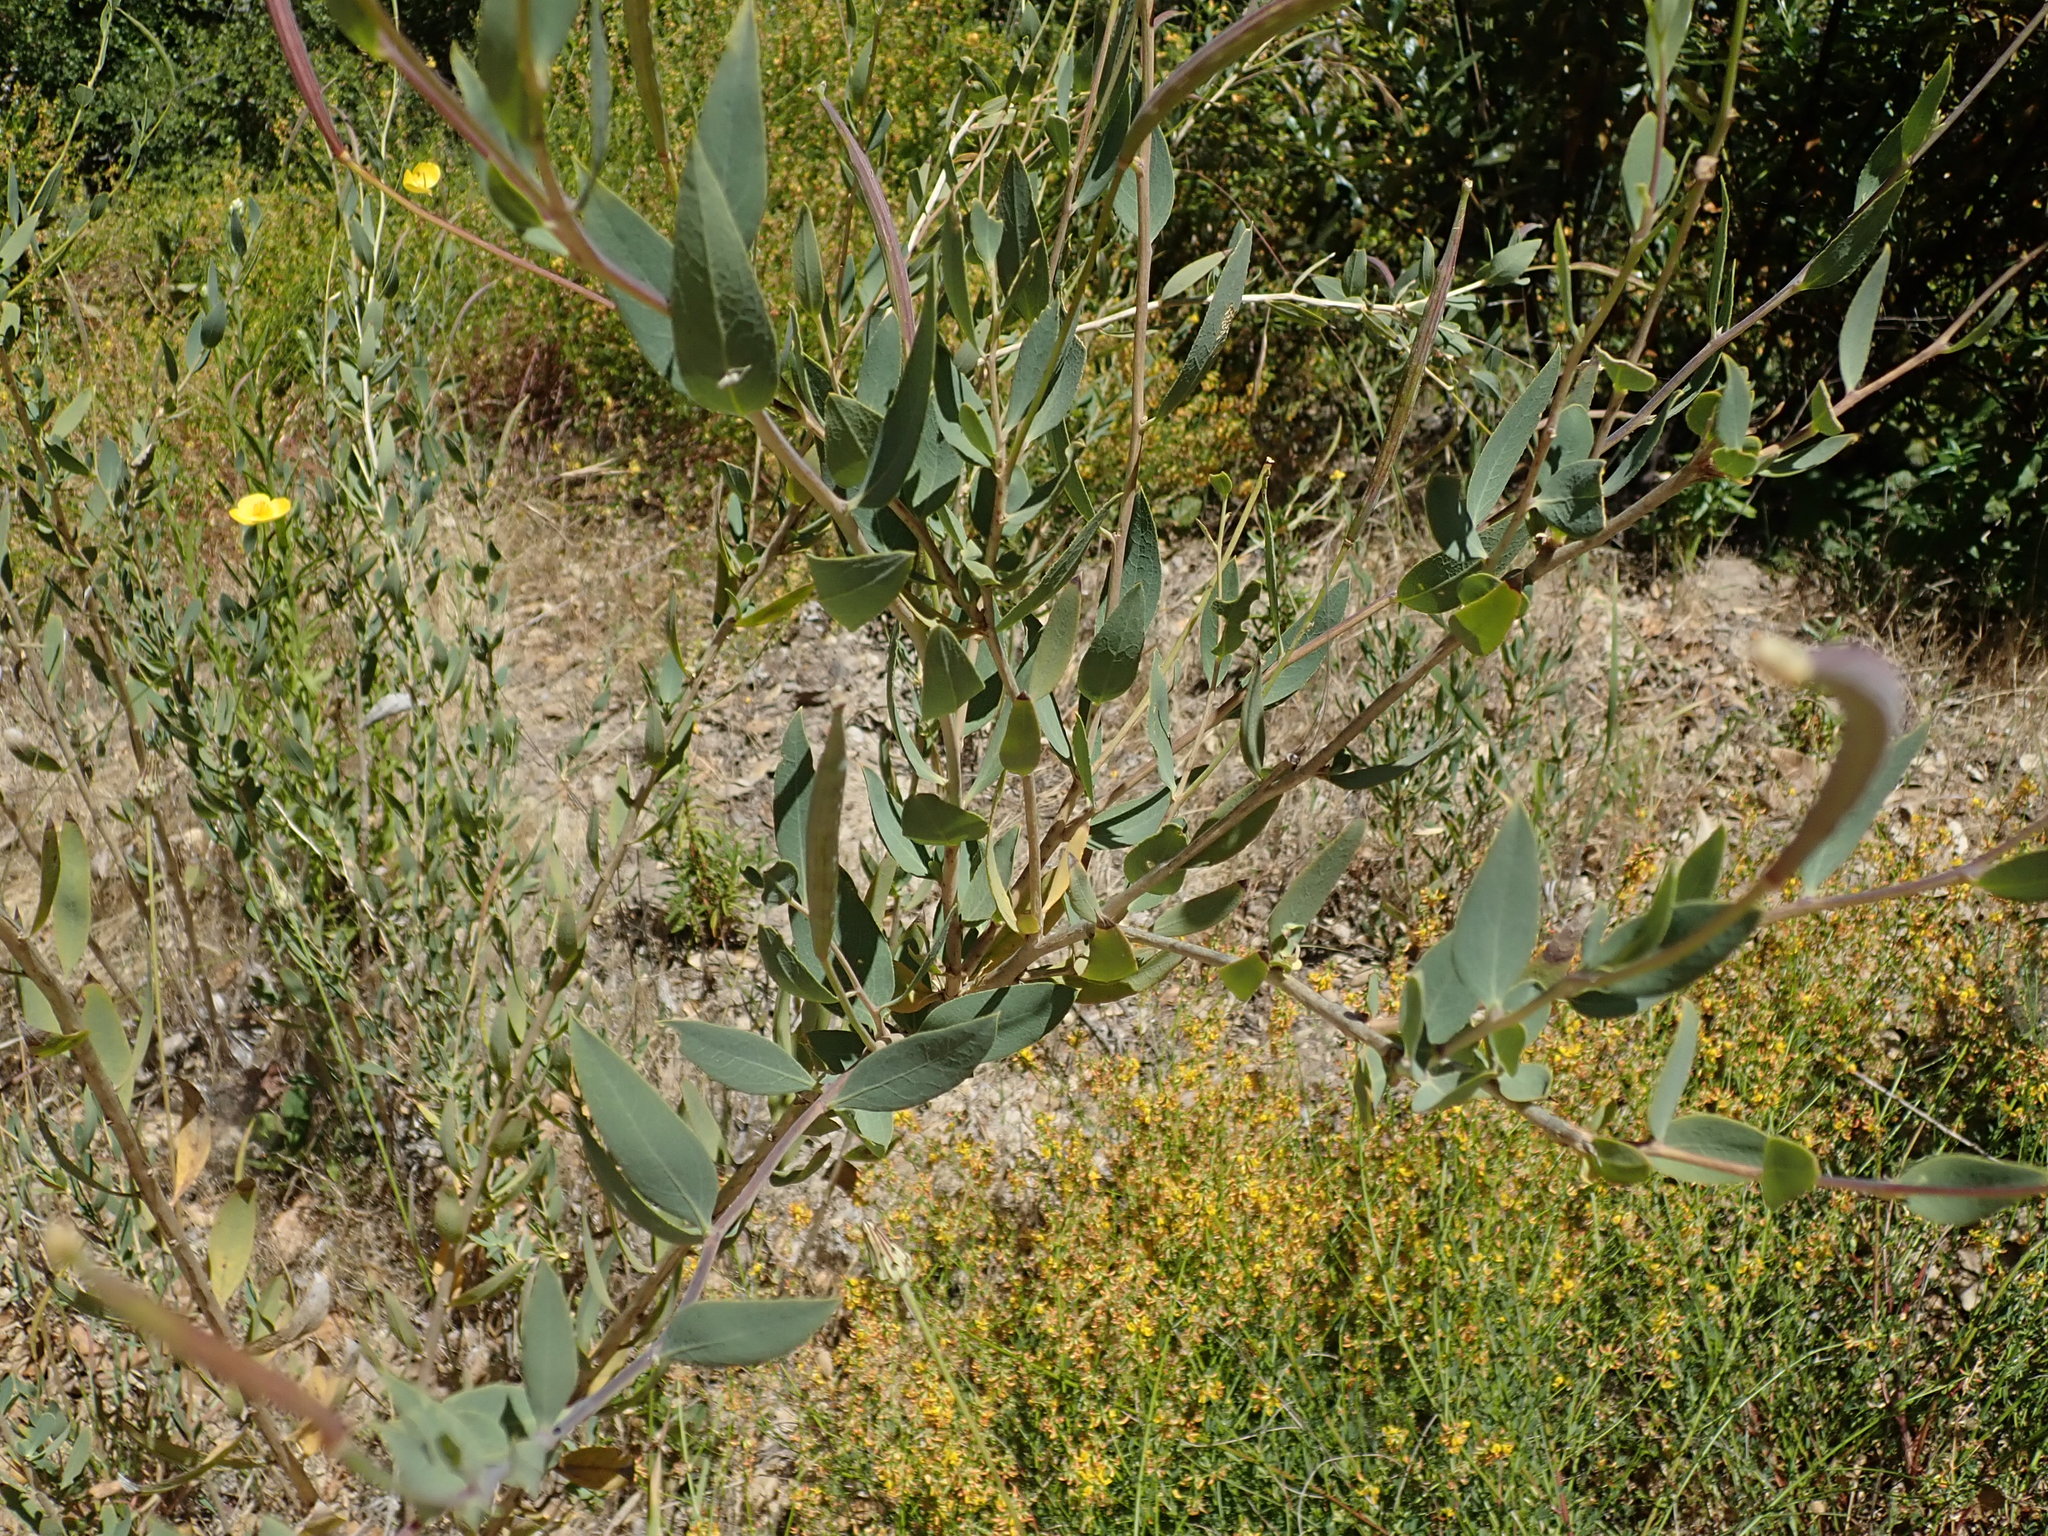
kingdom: Plantae
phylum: Tracheophyta
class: Magnoliopsida
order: Ranunculales
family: Papaveraceae
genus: Dendromecon
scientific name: Dendromecon rigida
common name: Tree poppy
